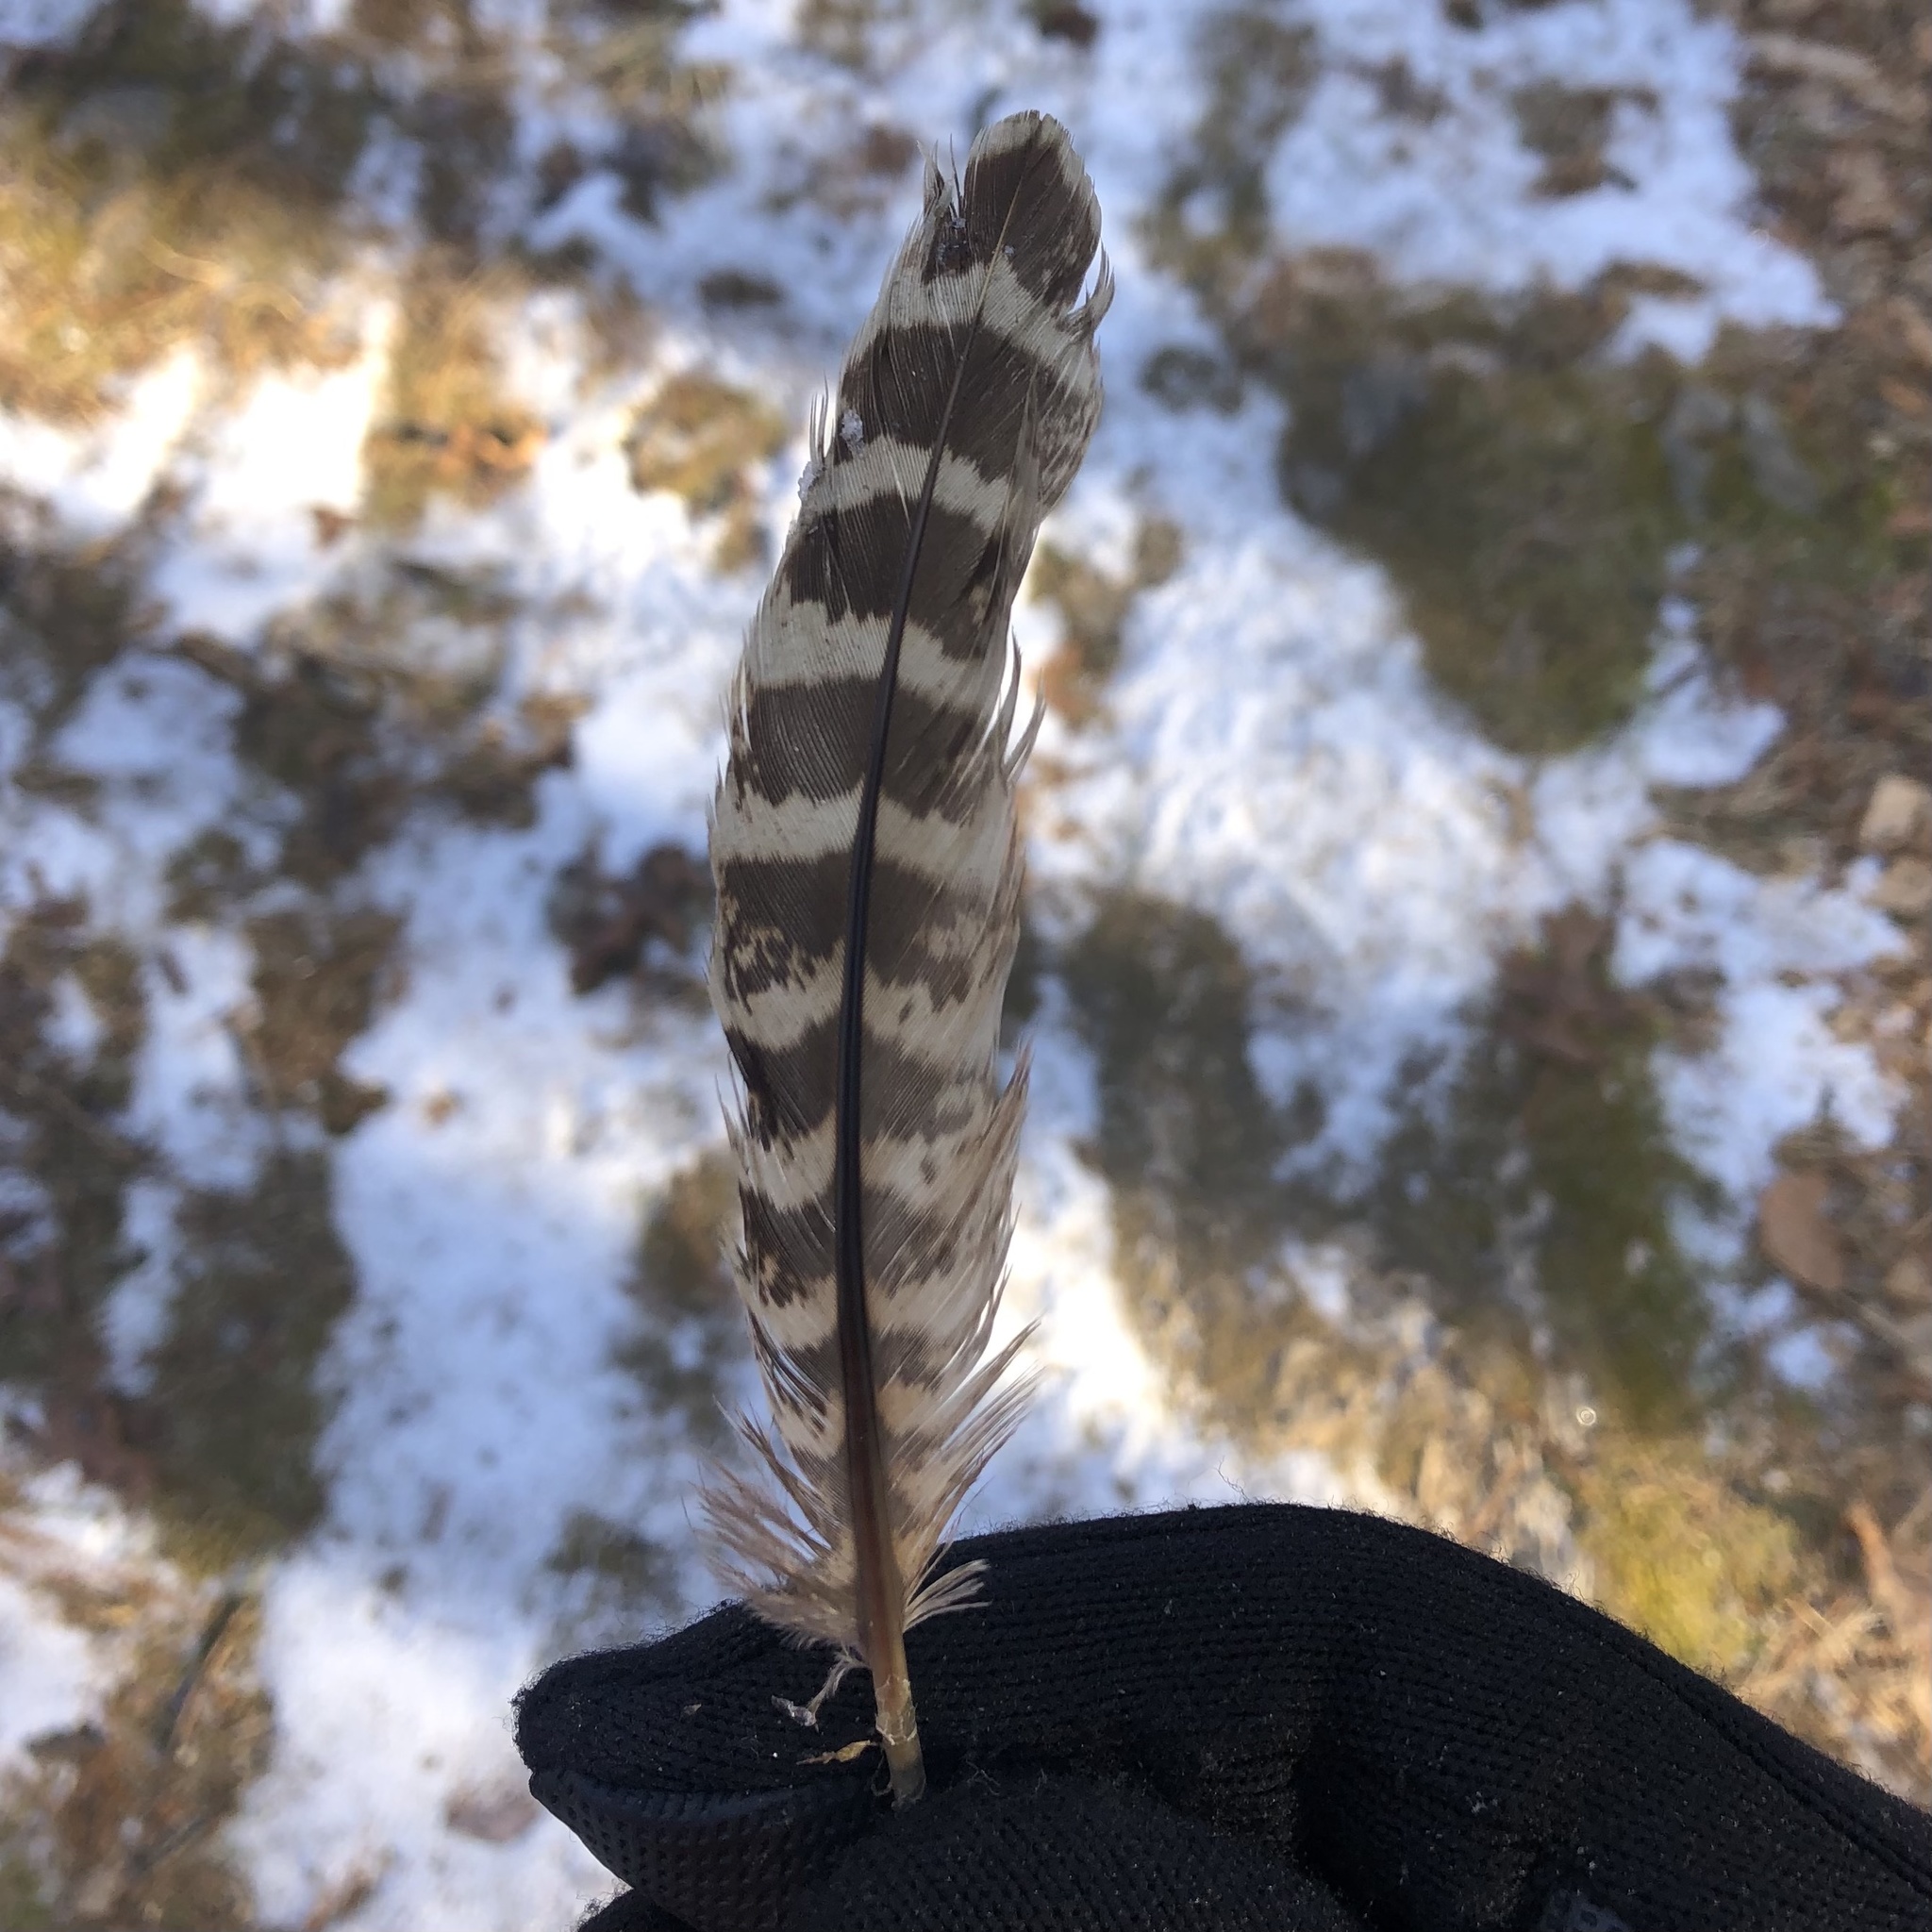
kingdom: Animalia
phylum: Chordata
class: Aves
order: Galliformes
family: Phasianidae
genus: Phasianus
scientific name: Phasianus colchicus
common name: Common pheasant
